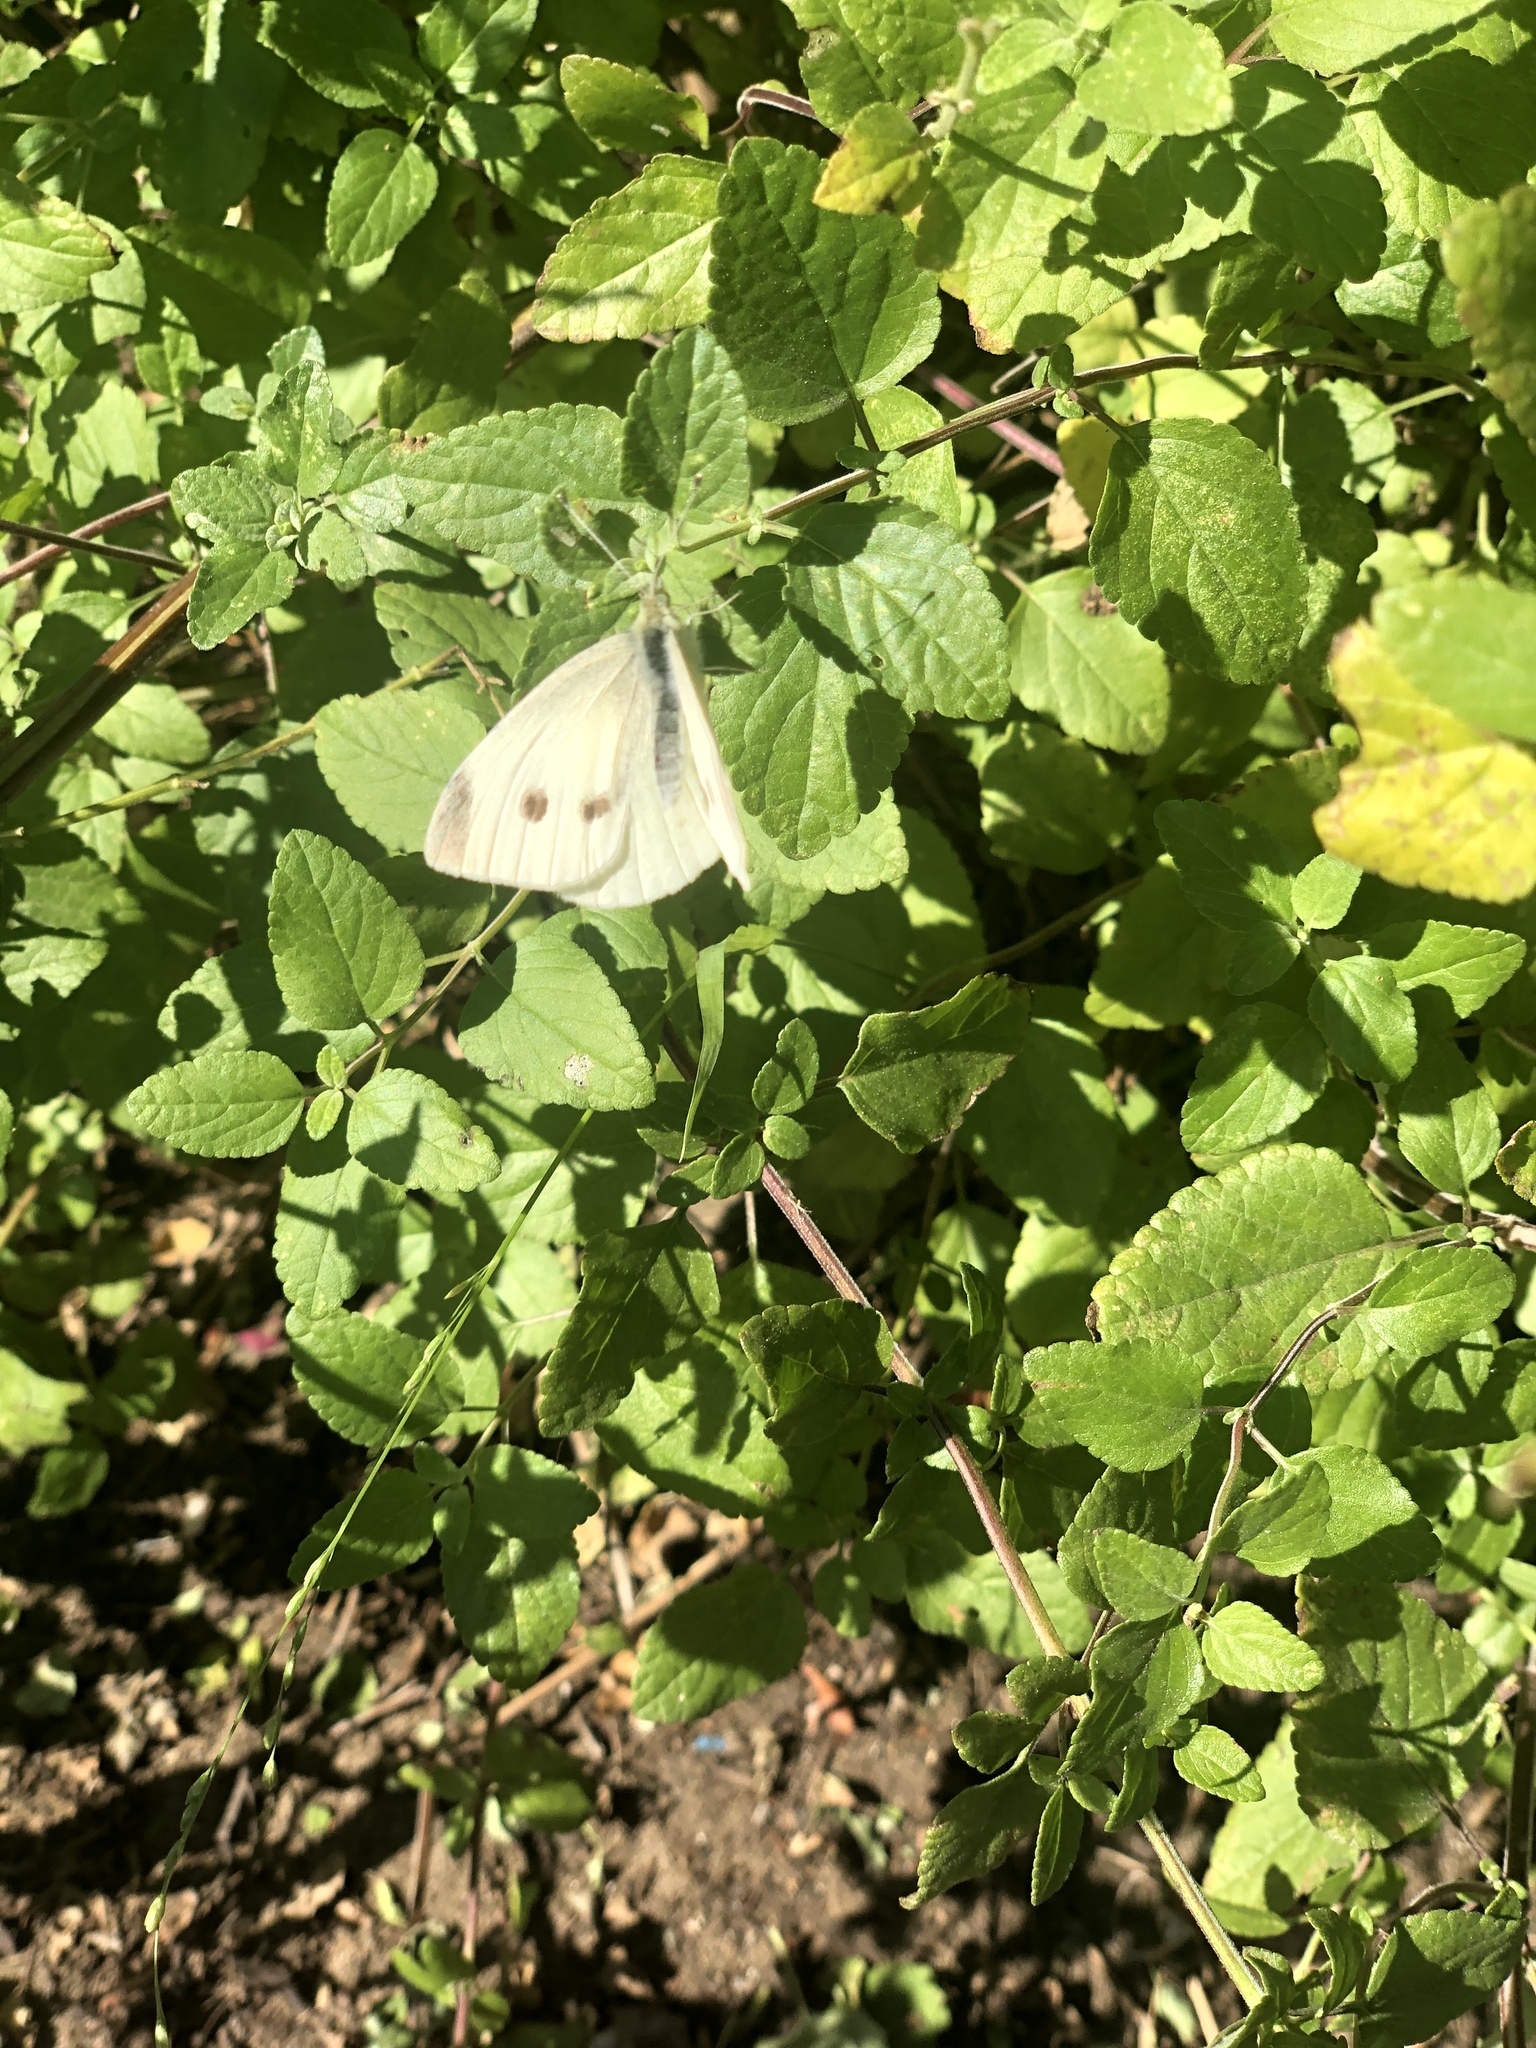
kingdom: Animalia
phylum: Arthropoda
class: Insecta
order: Lepidoptera
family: Pieridae
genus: Pieris
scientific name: Pieris rapae
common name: Small white
